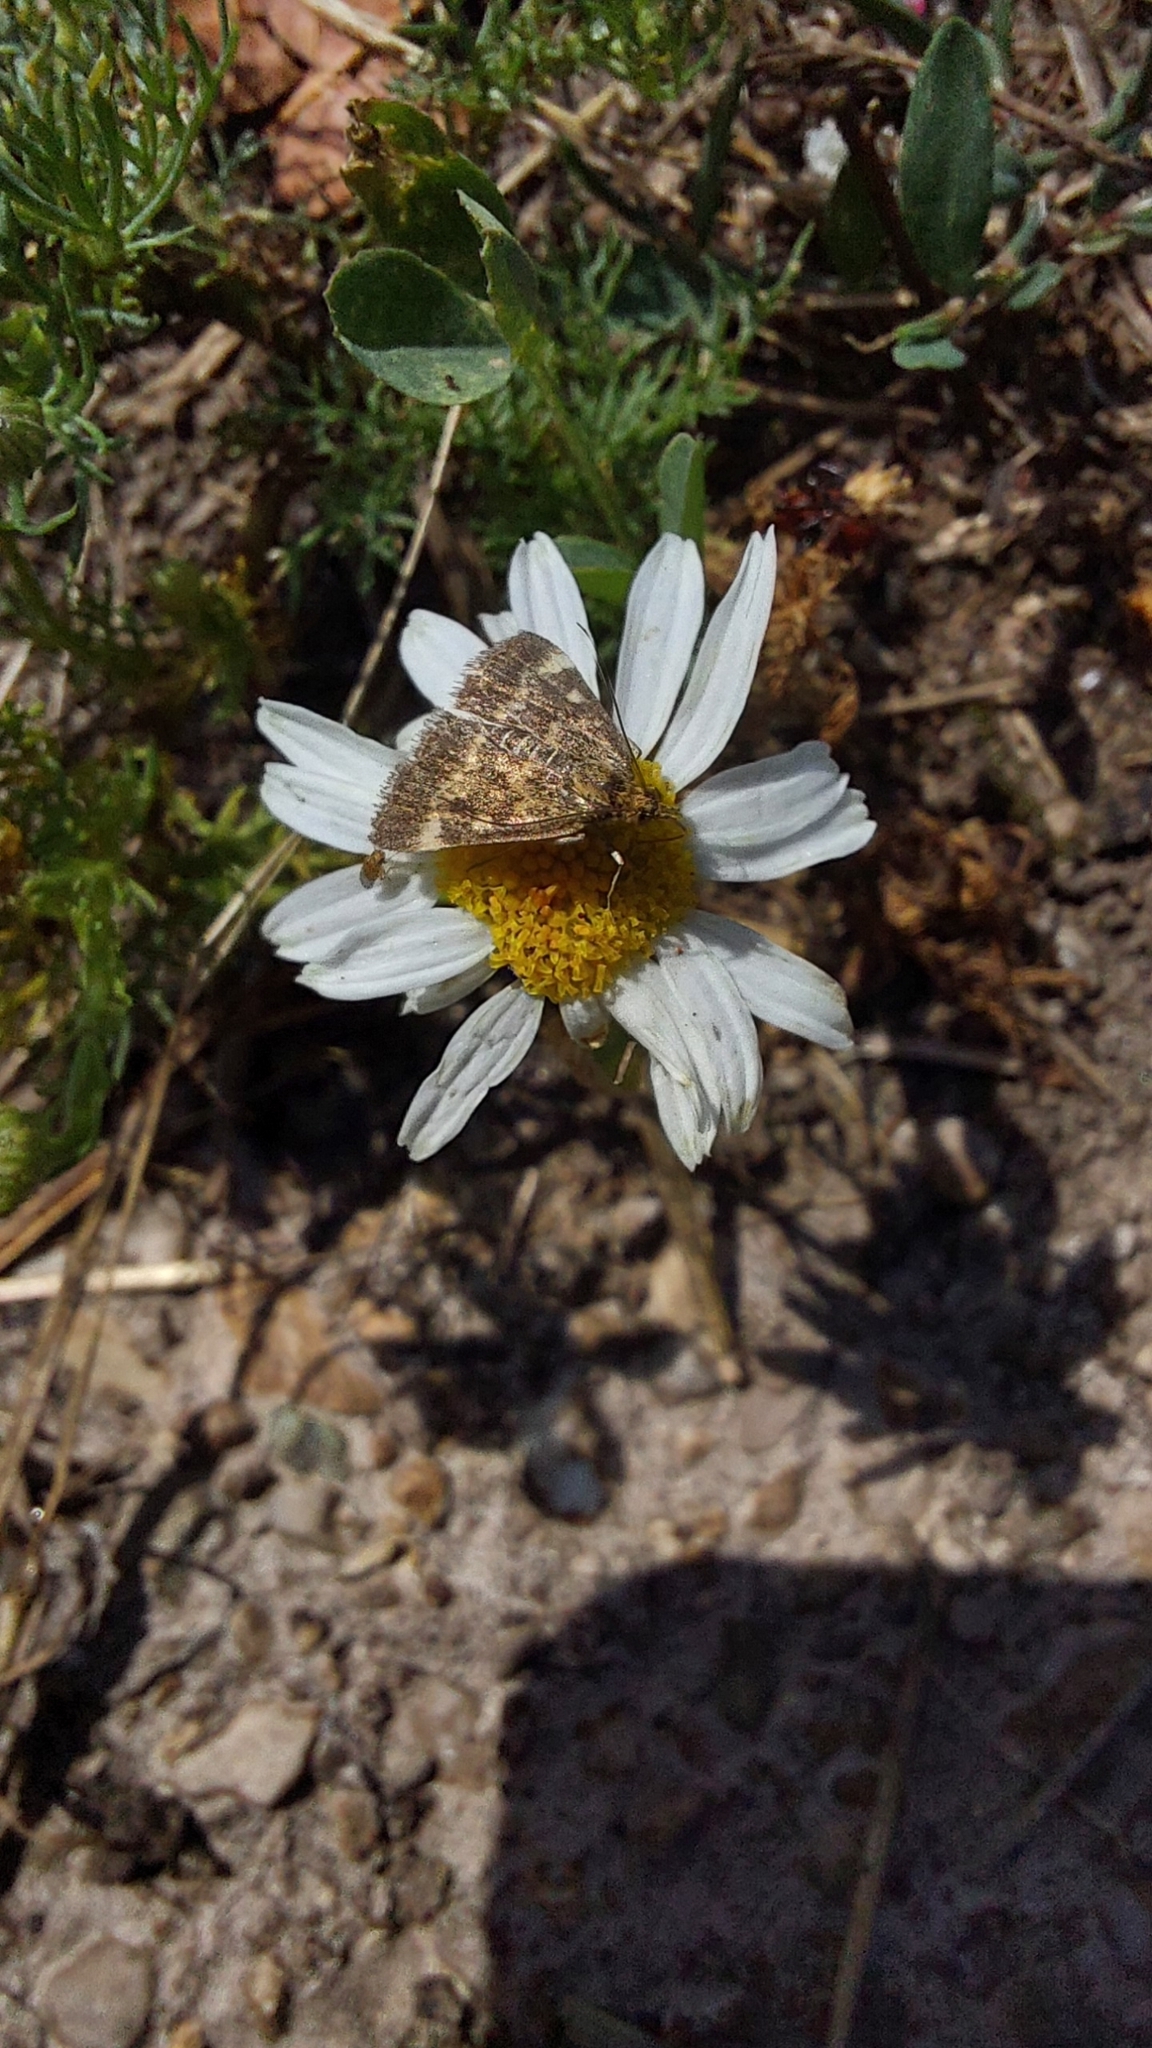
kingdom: Animalia
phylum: Arthropoda
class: Insecta
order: Lepidoptera
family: Crambidae
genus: Pyrausta
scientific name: Pyrausta despicata
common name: Straw-barred pearl
